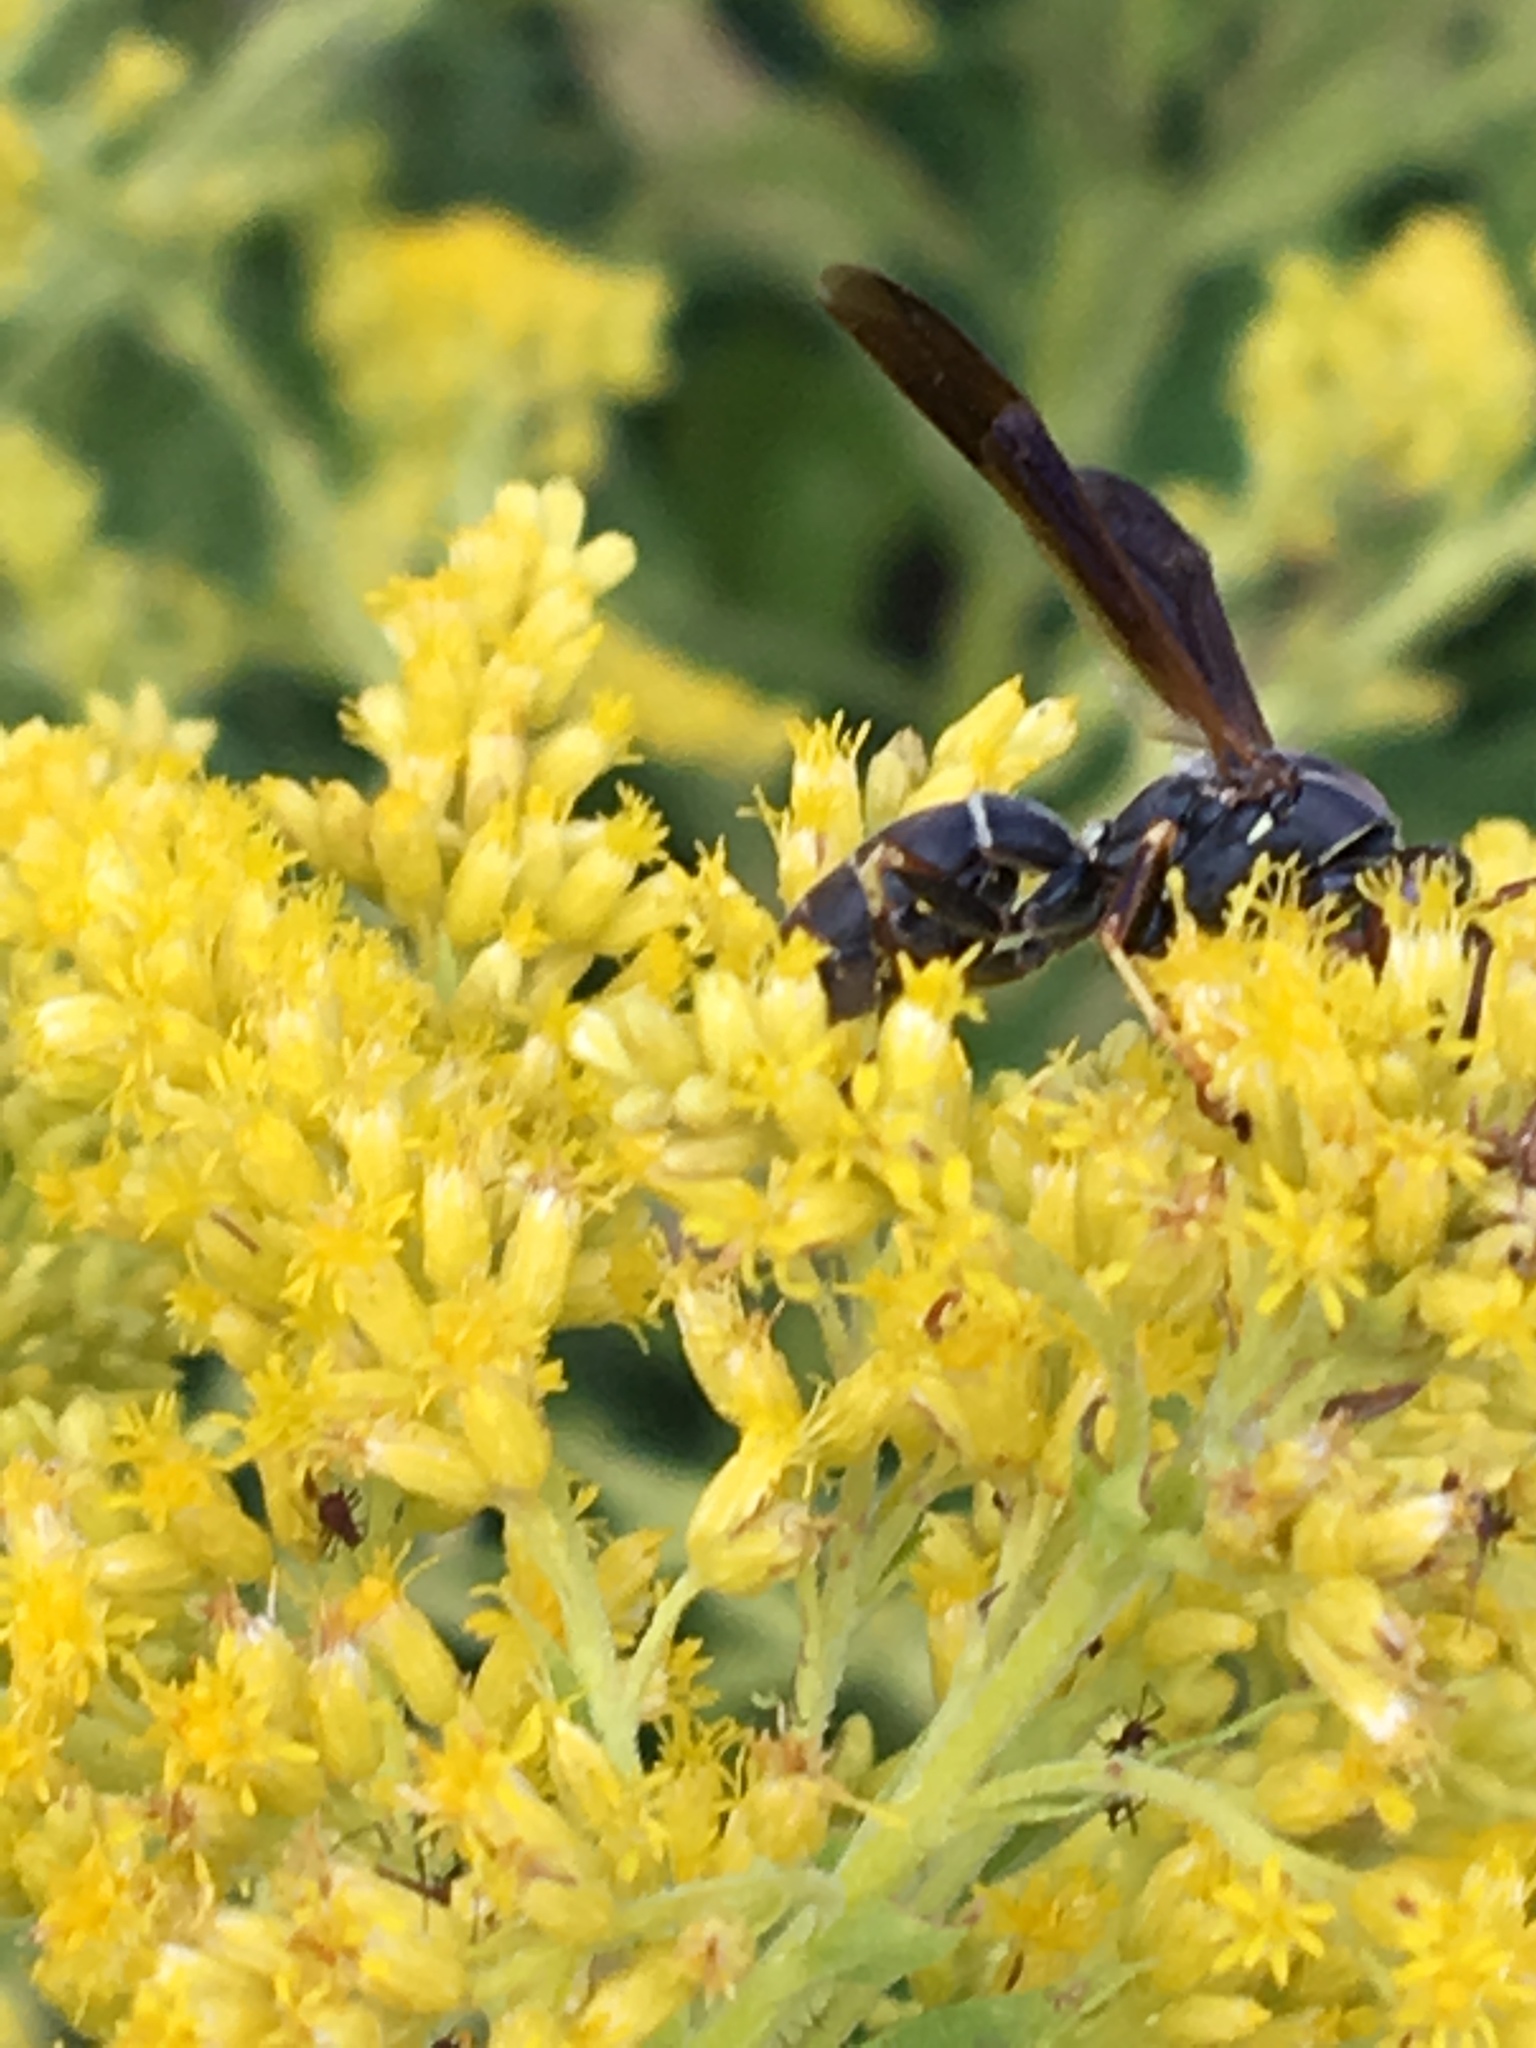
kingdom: Animalia
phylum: Arthropoda
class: Insecta
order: Hymenoptera
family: Eumenidae
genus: Polistes
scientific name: Polistes fuscatus
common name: Dark paper wasp
